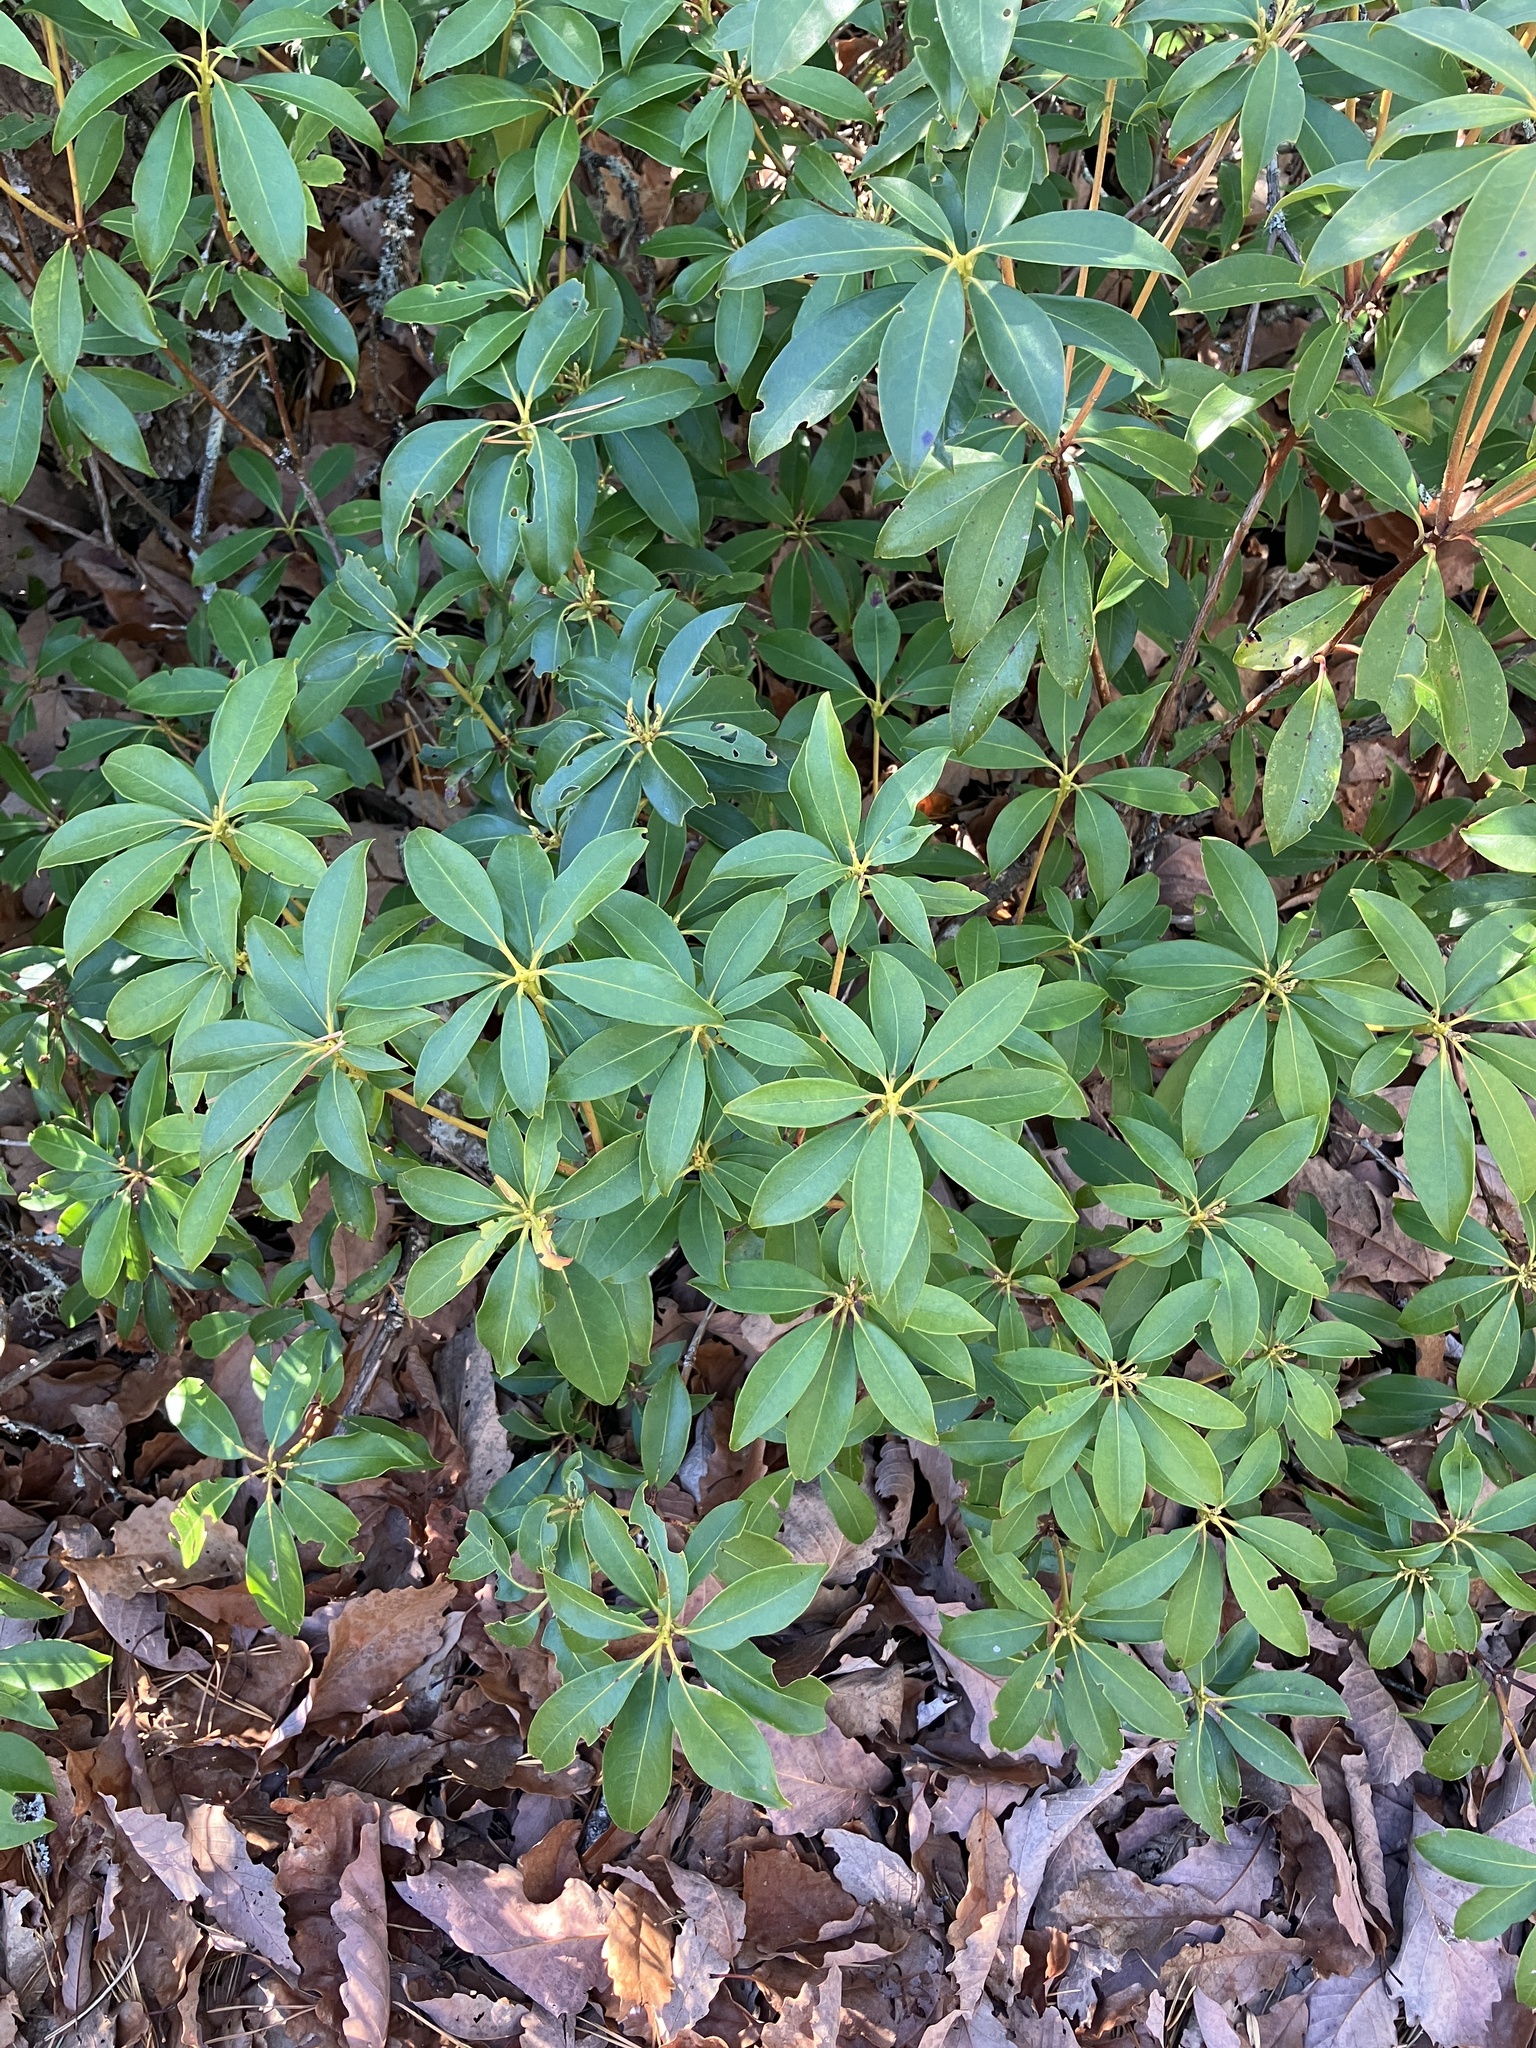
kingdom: Plantae
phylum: Tracheophyta
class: Magnoliopsida
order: Ericales
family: Ericaceae
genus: Kalmia
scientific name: Kalmia latifolia
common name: Mountain-laurel
